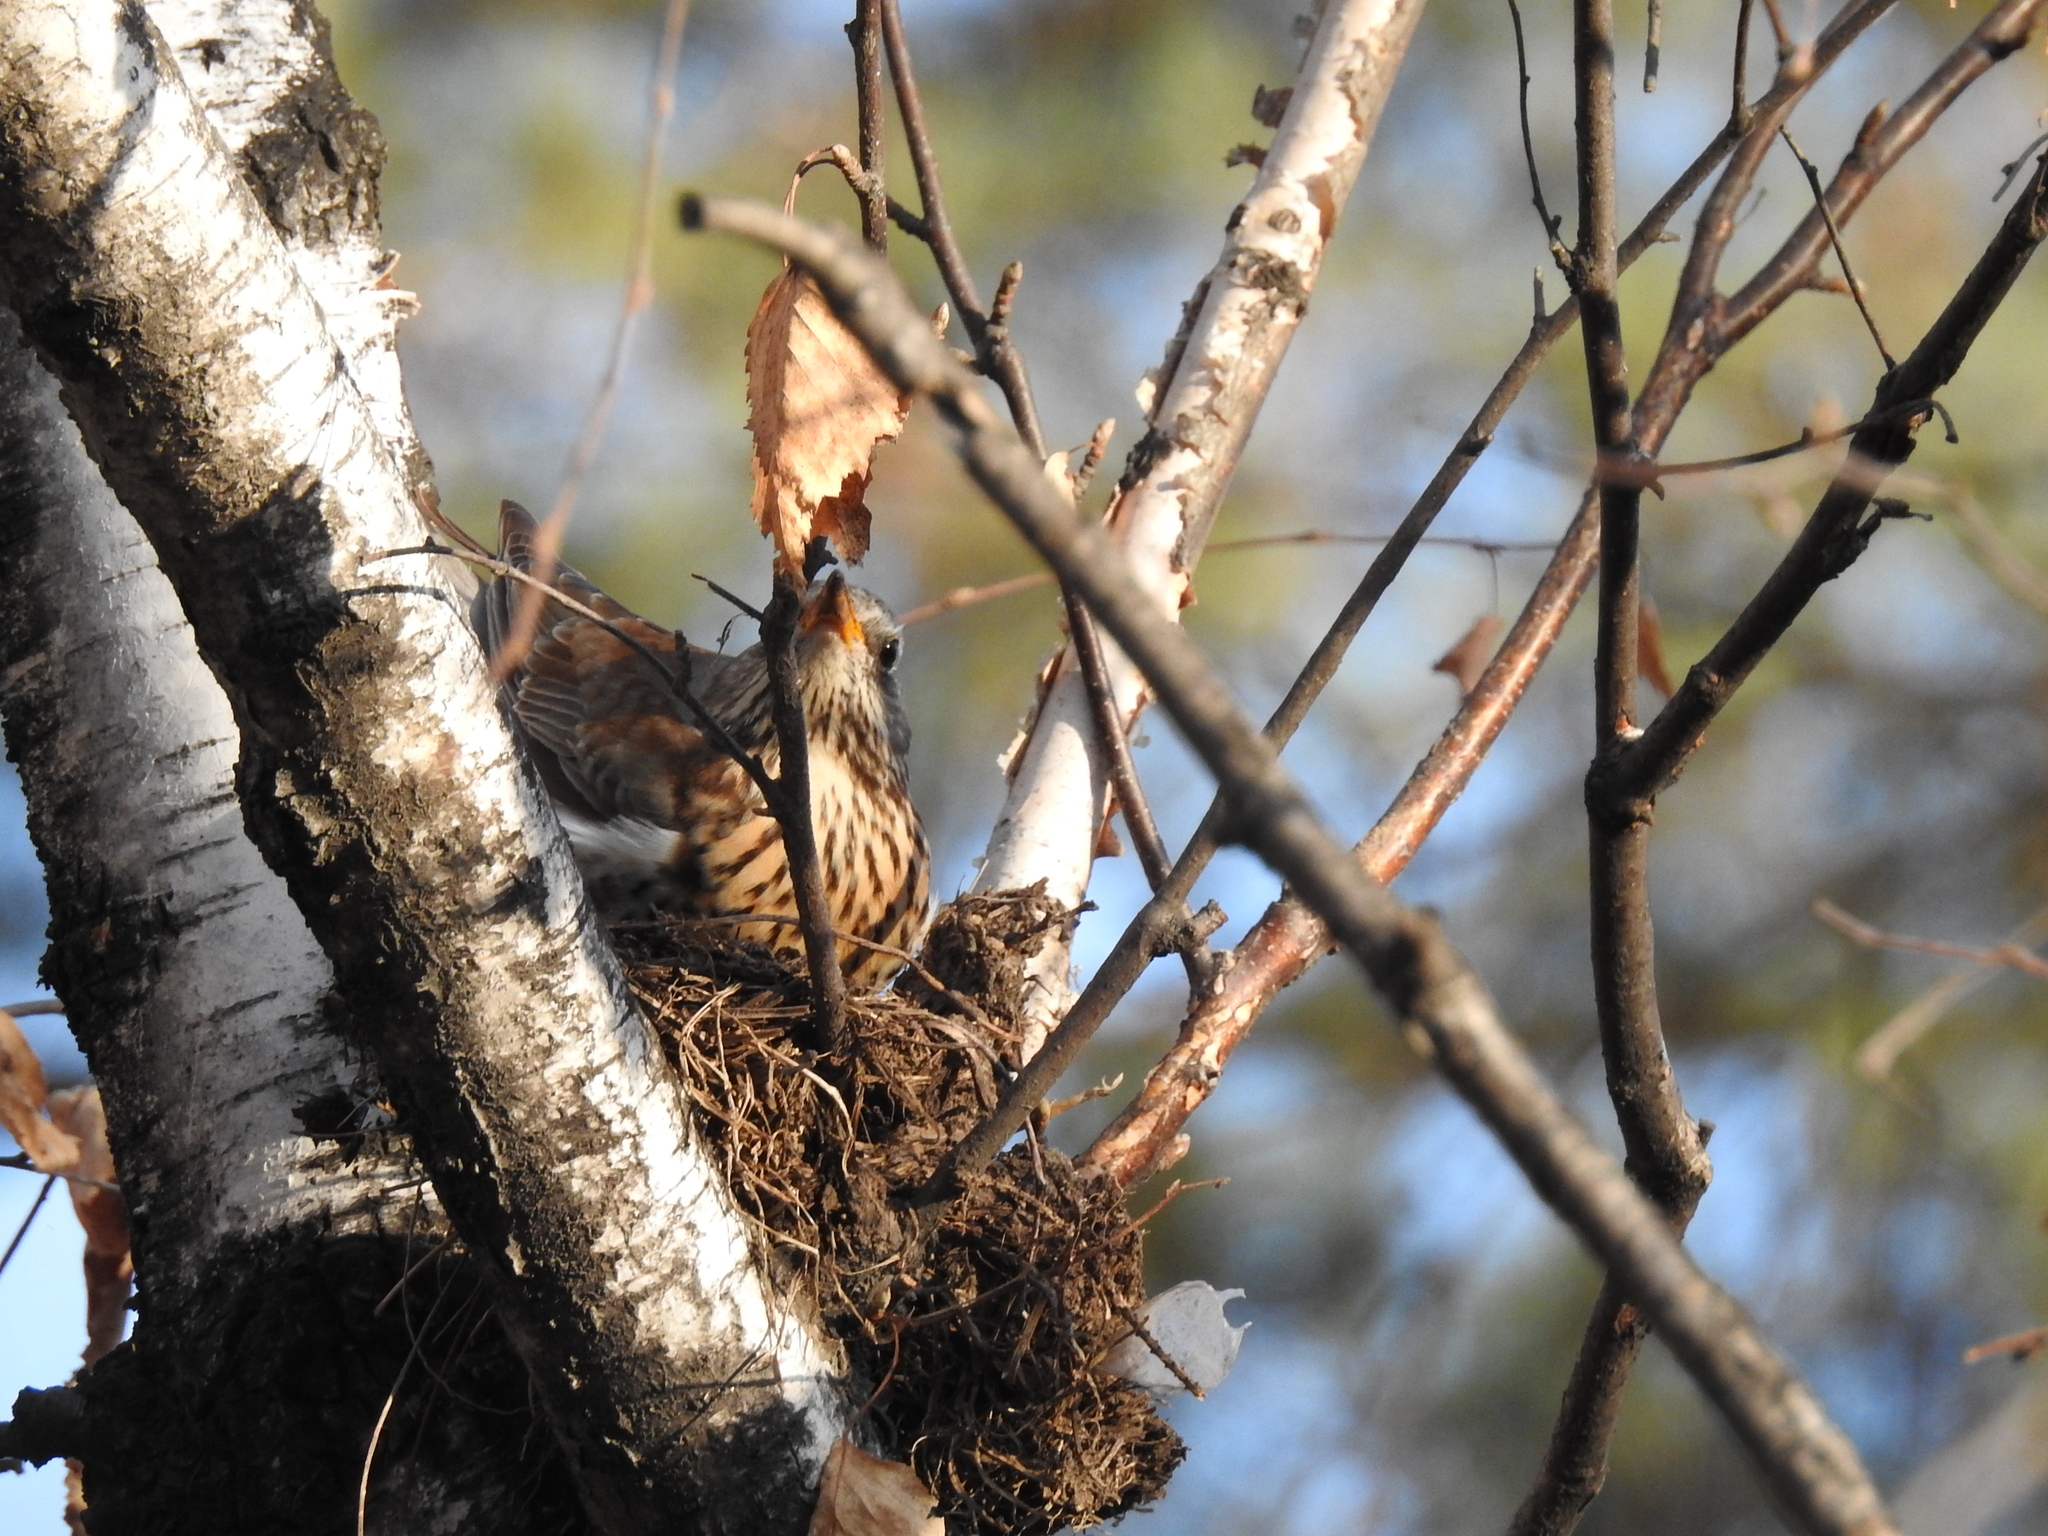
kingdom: Animalia
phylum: Chordata
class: Aves
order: Passeriformes
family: Turdidae
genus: Turdus
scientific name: Turdus pilaris
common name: Fieldfare
